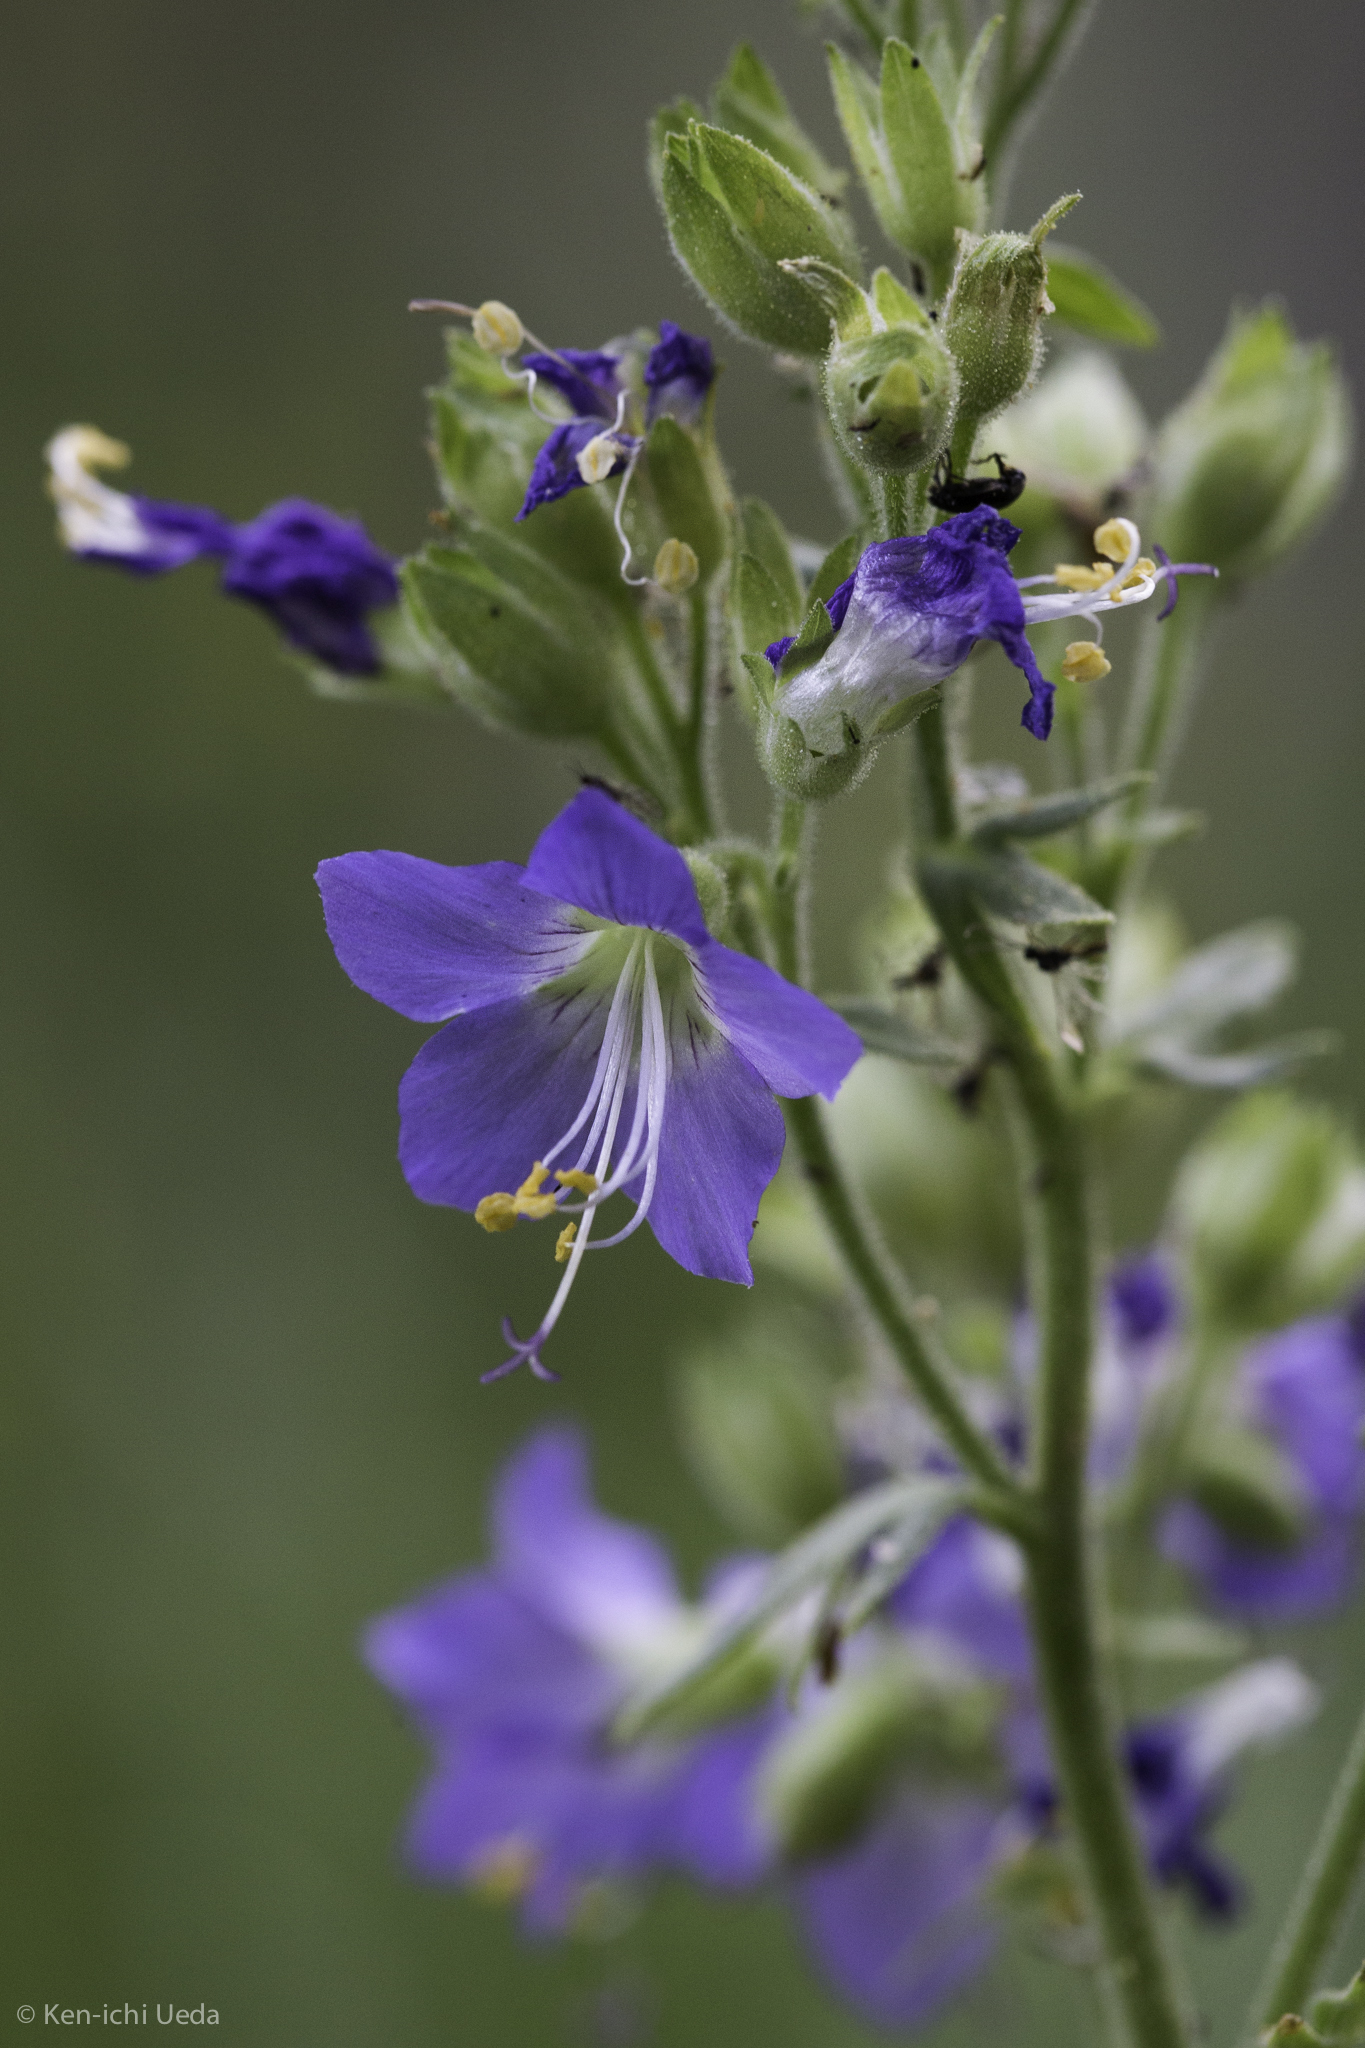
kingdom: Plantae
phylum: Tracheophyta
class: Magnoliopsida
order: Ericales
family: Polemoniaceae
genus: Polemonium
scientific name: Polemonium occidentale
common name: Western jacob's-ladder
